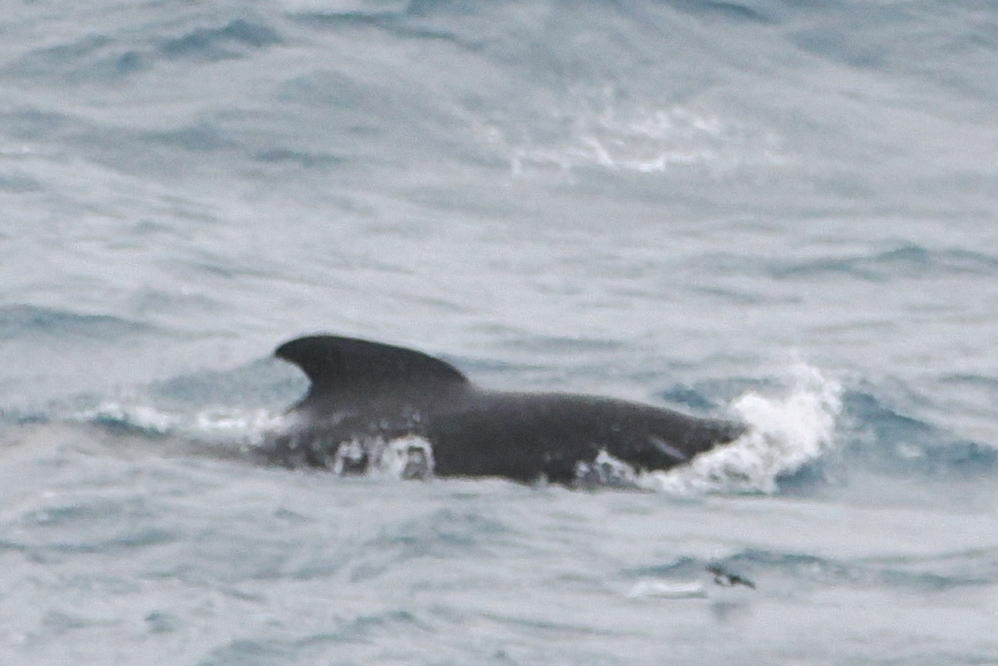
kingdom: Animalia
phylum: Chordata
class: Mammalia
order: Cetacea
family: Delphinidae
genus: Globicephala
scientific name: Globicephala melas
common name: Long-finned pilot whale
